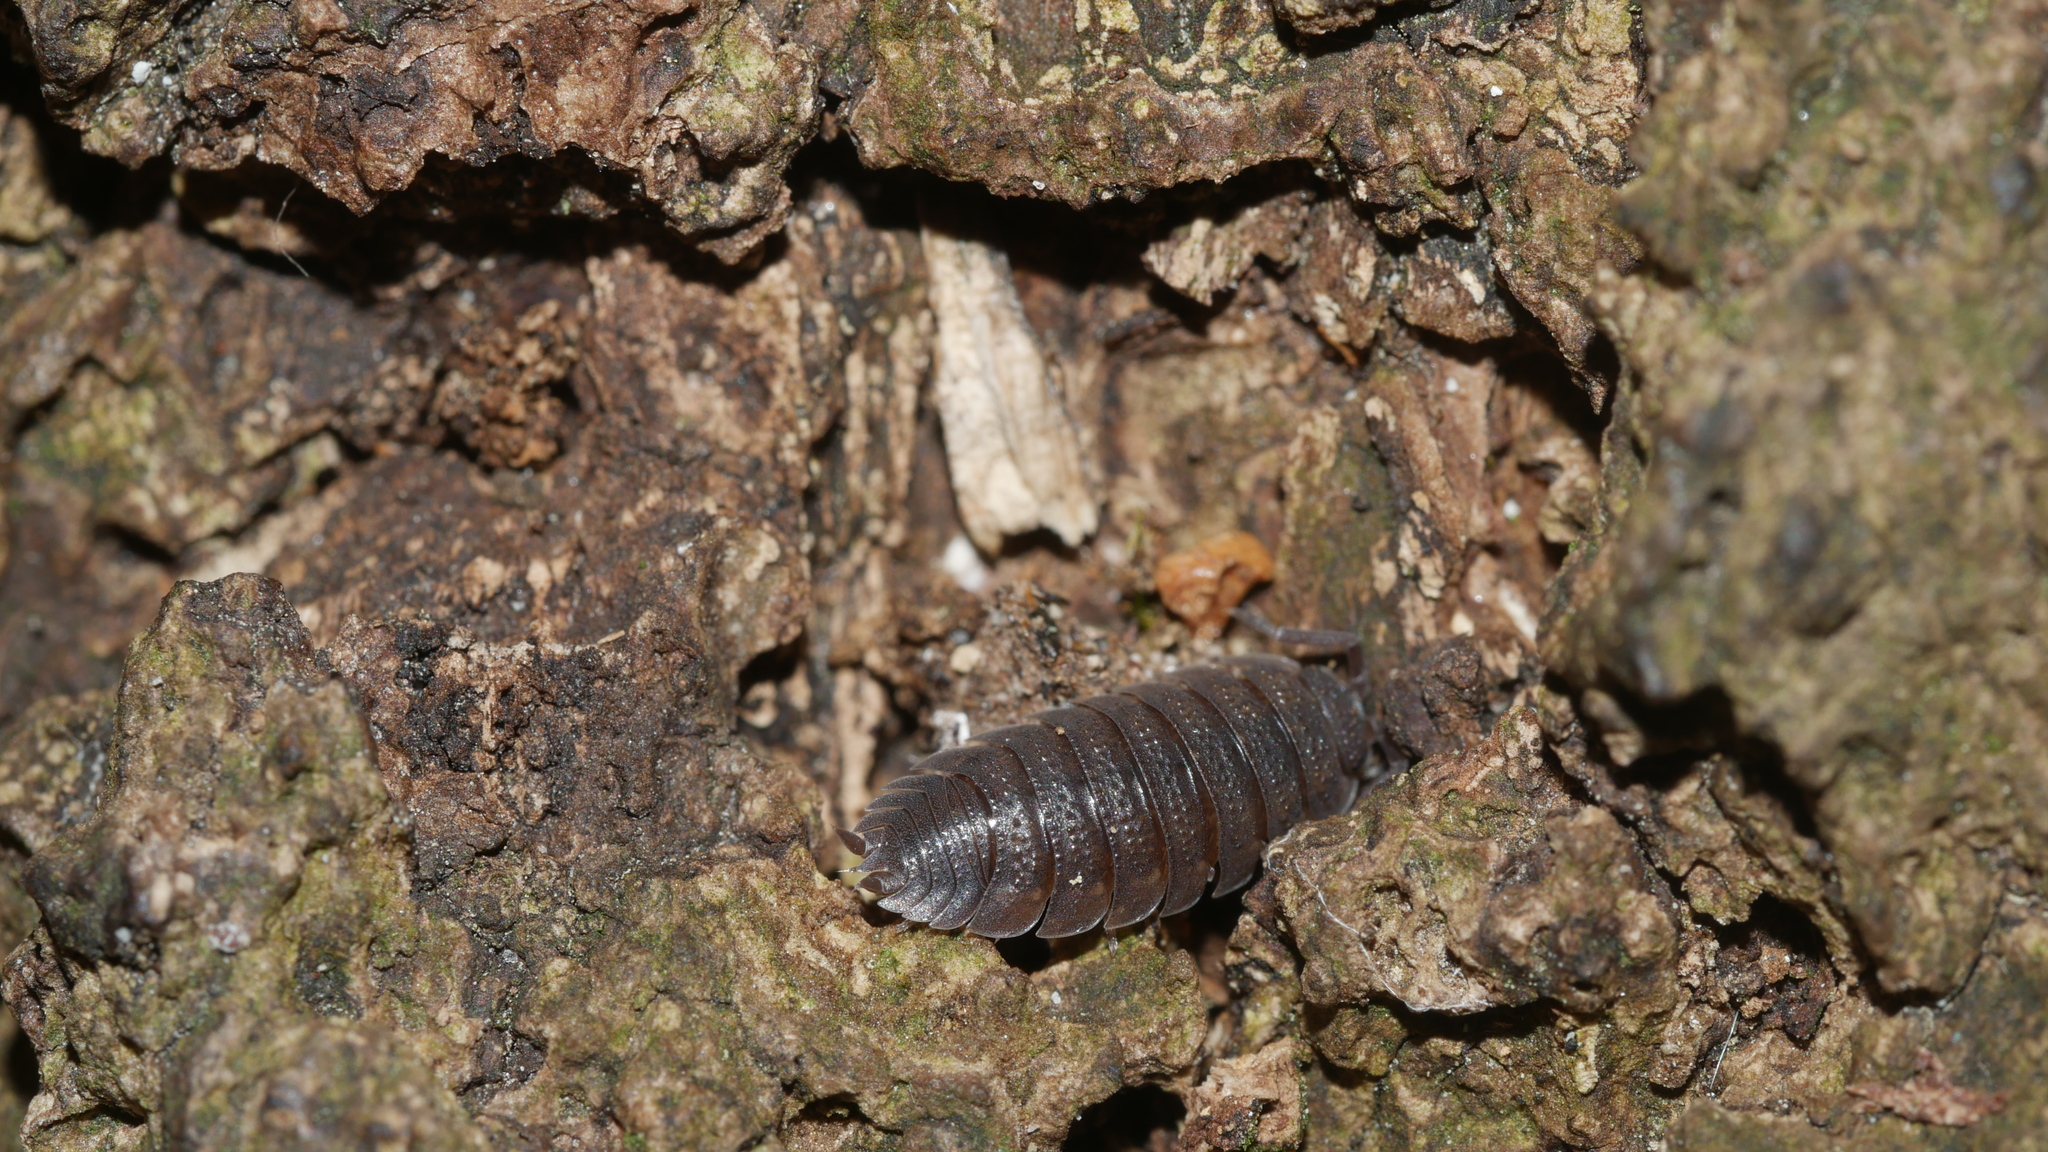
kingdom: Animalia
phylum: Arthropoda
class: Malacostraca
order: Isopoda
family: Porcellionidae
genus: Porcellio
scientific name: Porcellio scaber
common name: Common rough woodlouse
